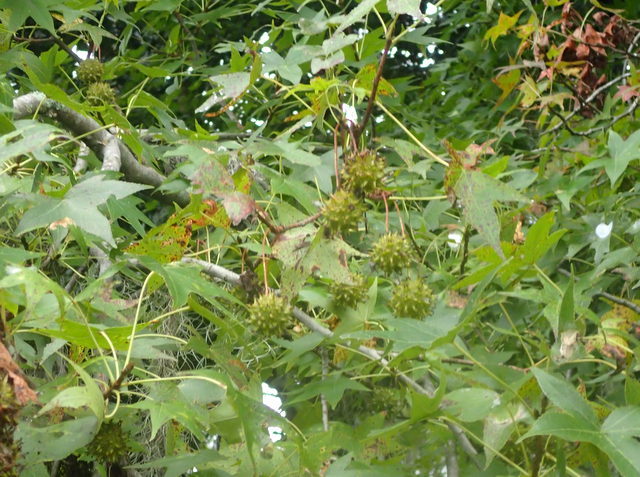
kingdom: Plantae
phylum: Tracheophyta
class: Magnoliopsida
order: Saxifragales
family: Altingiaceae
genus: Liquidambar
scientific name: Liquidambar styraciflua
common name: Sweet gum
